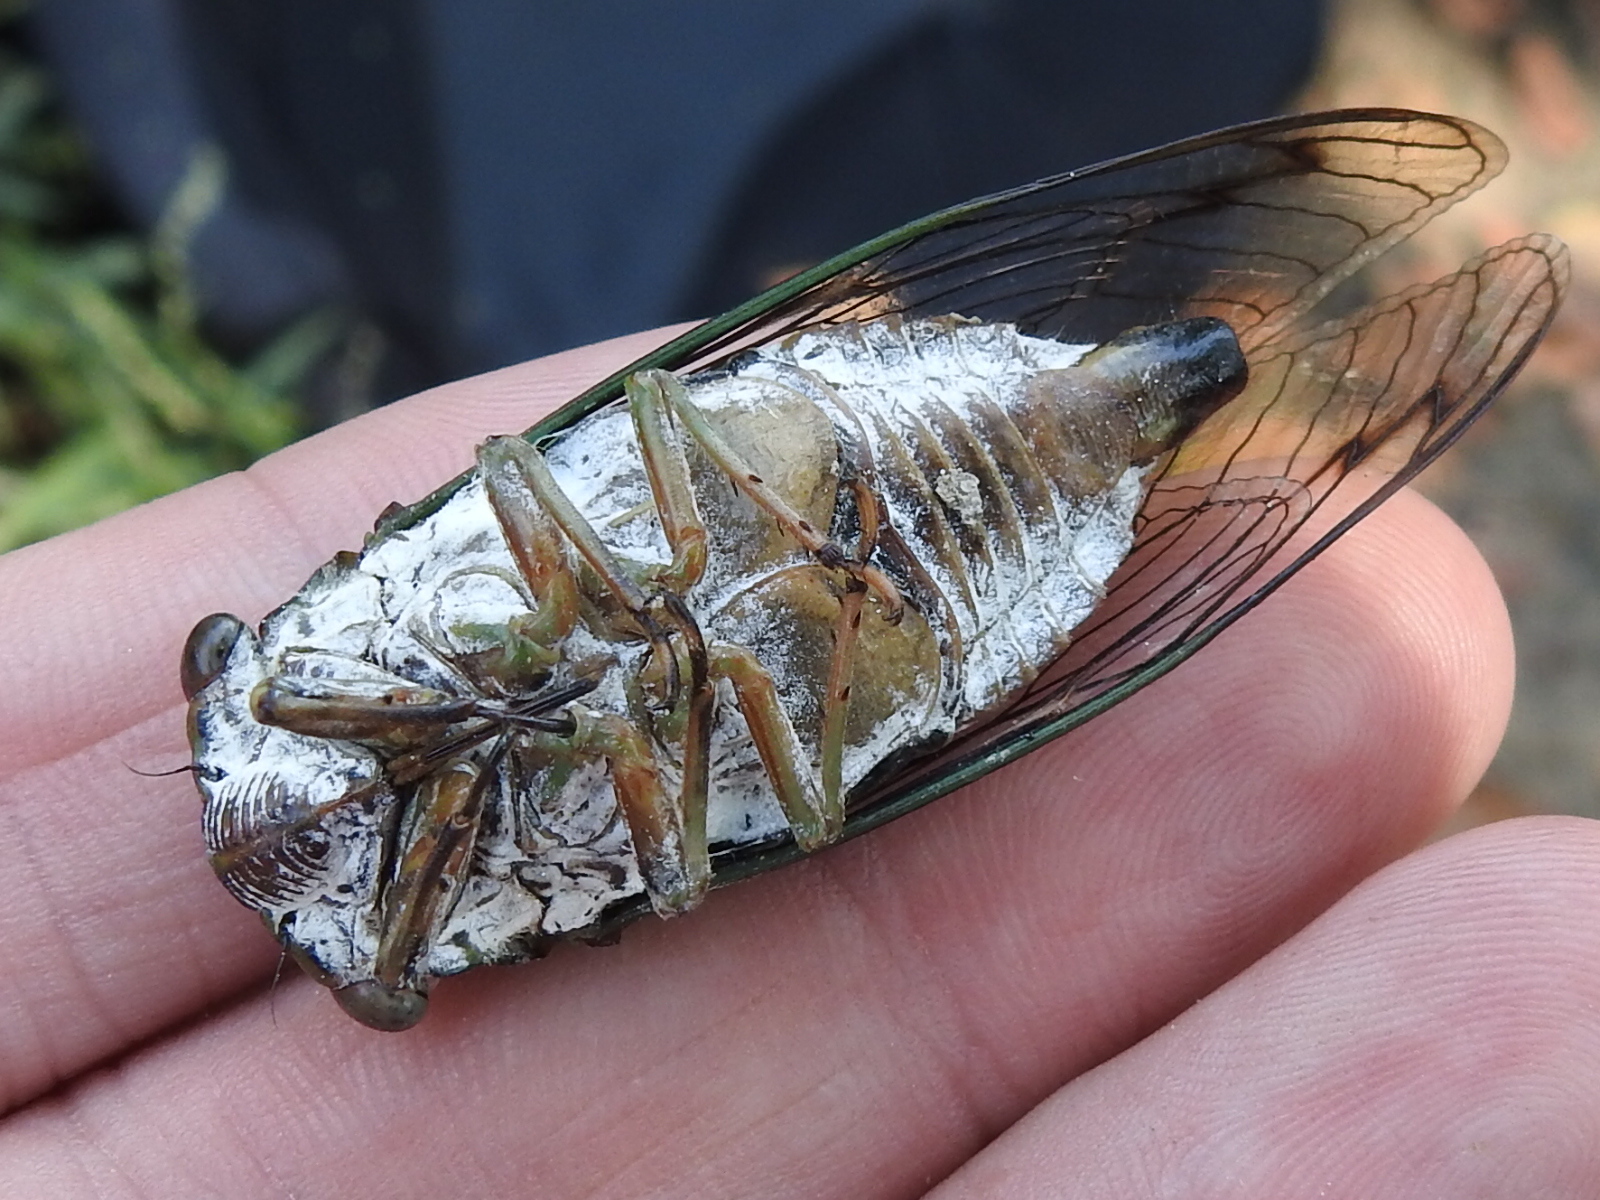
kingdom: Animalia
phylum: Arthropoda
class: Insecta
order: Hemiptera
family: Cicadidae
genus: Neotibicen
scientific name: Neotibicen pruinosus
